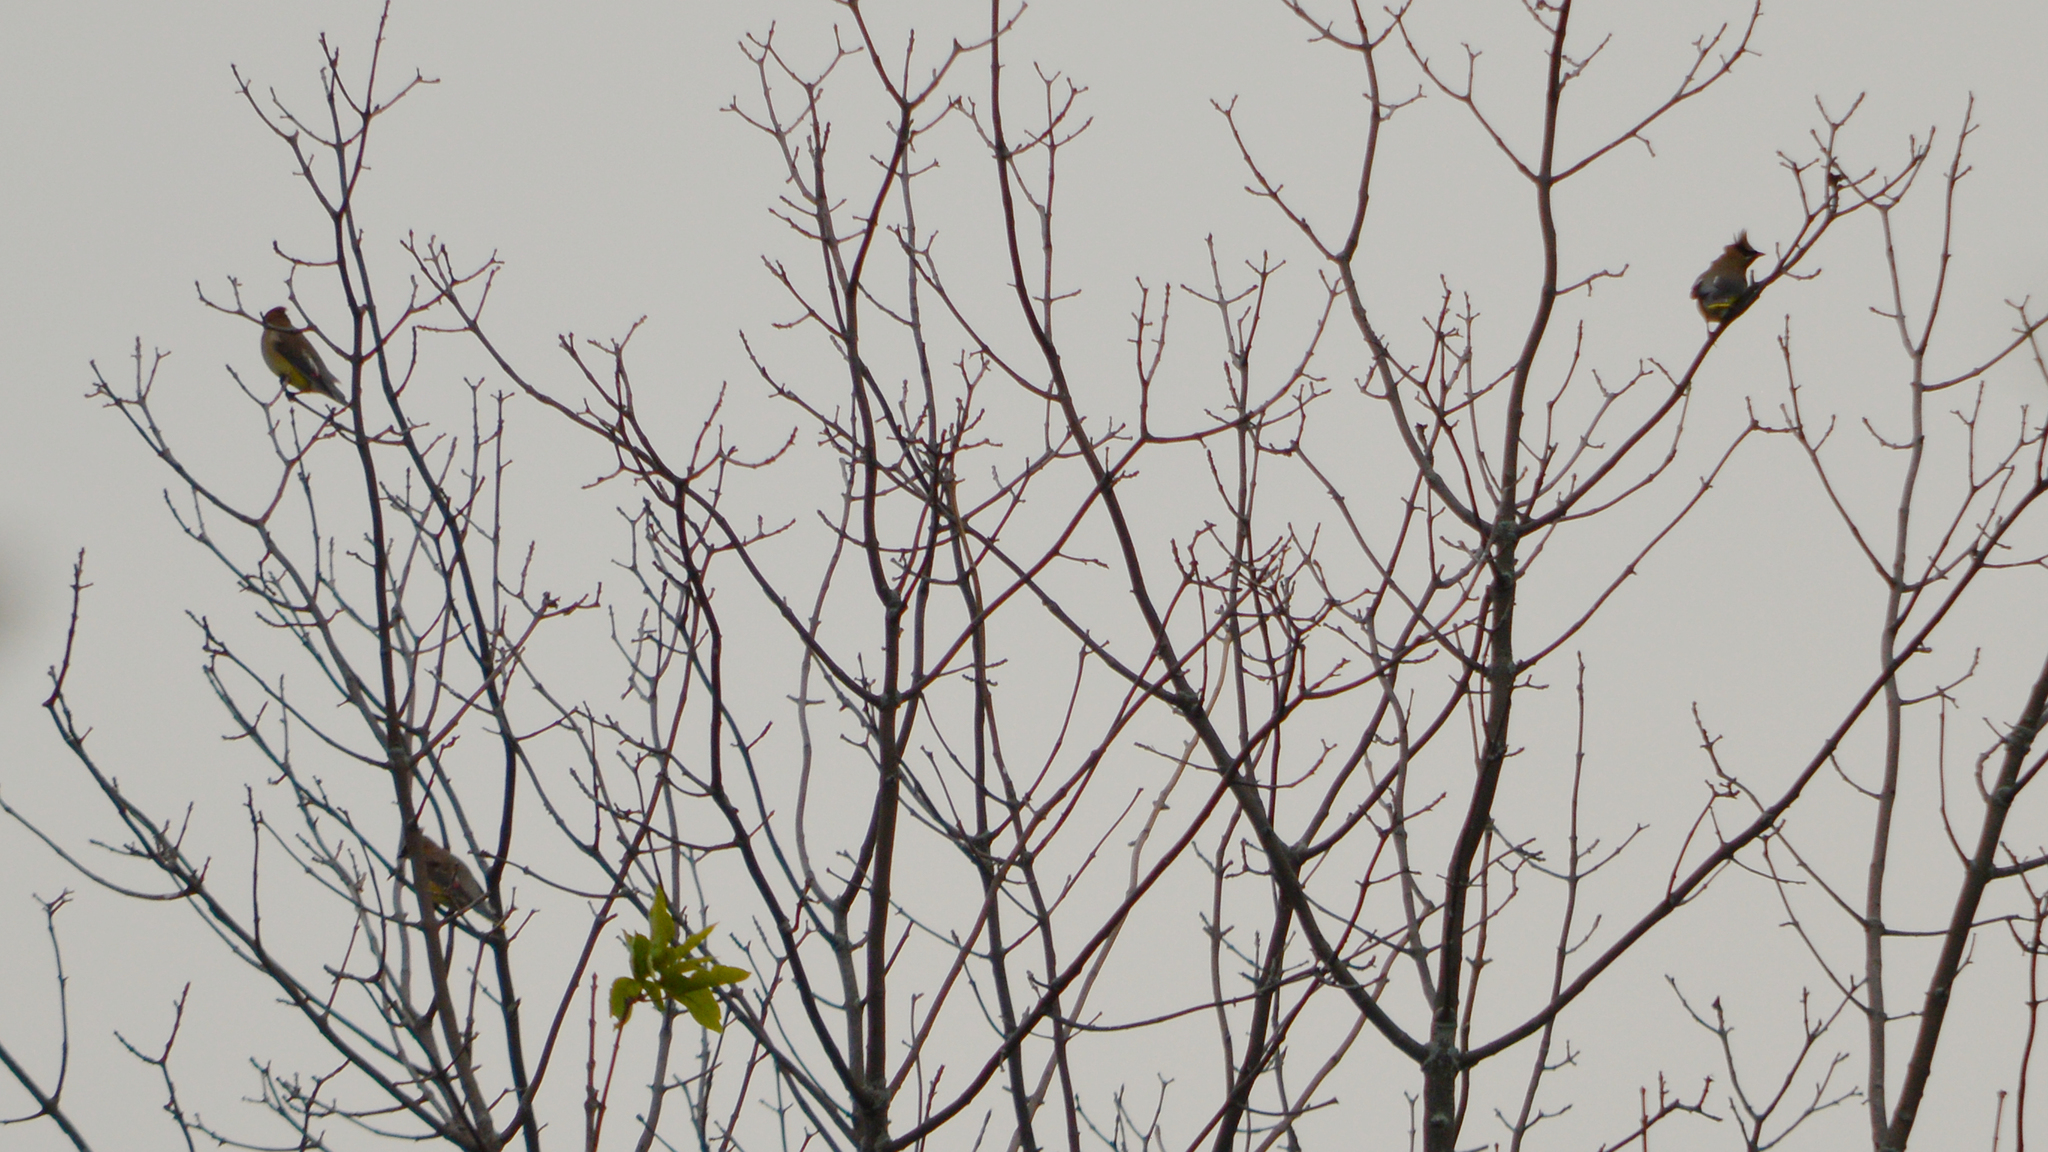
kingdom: Animalia
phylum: Chordata
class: Aves
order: Passeriformes
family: Bombycillidae
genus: Bombycilla
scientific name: Bombycilla cedrorum
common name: Cedar waxwing
